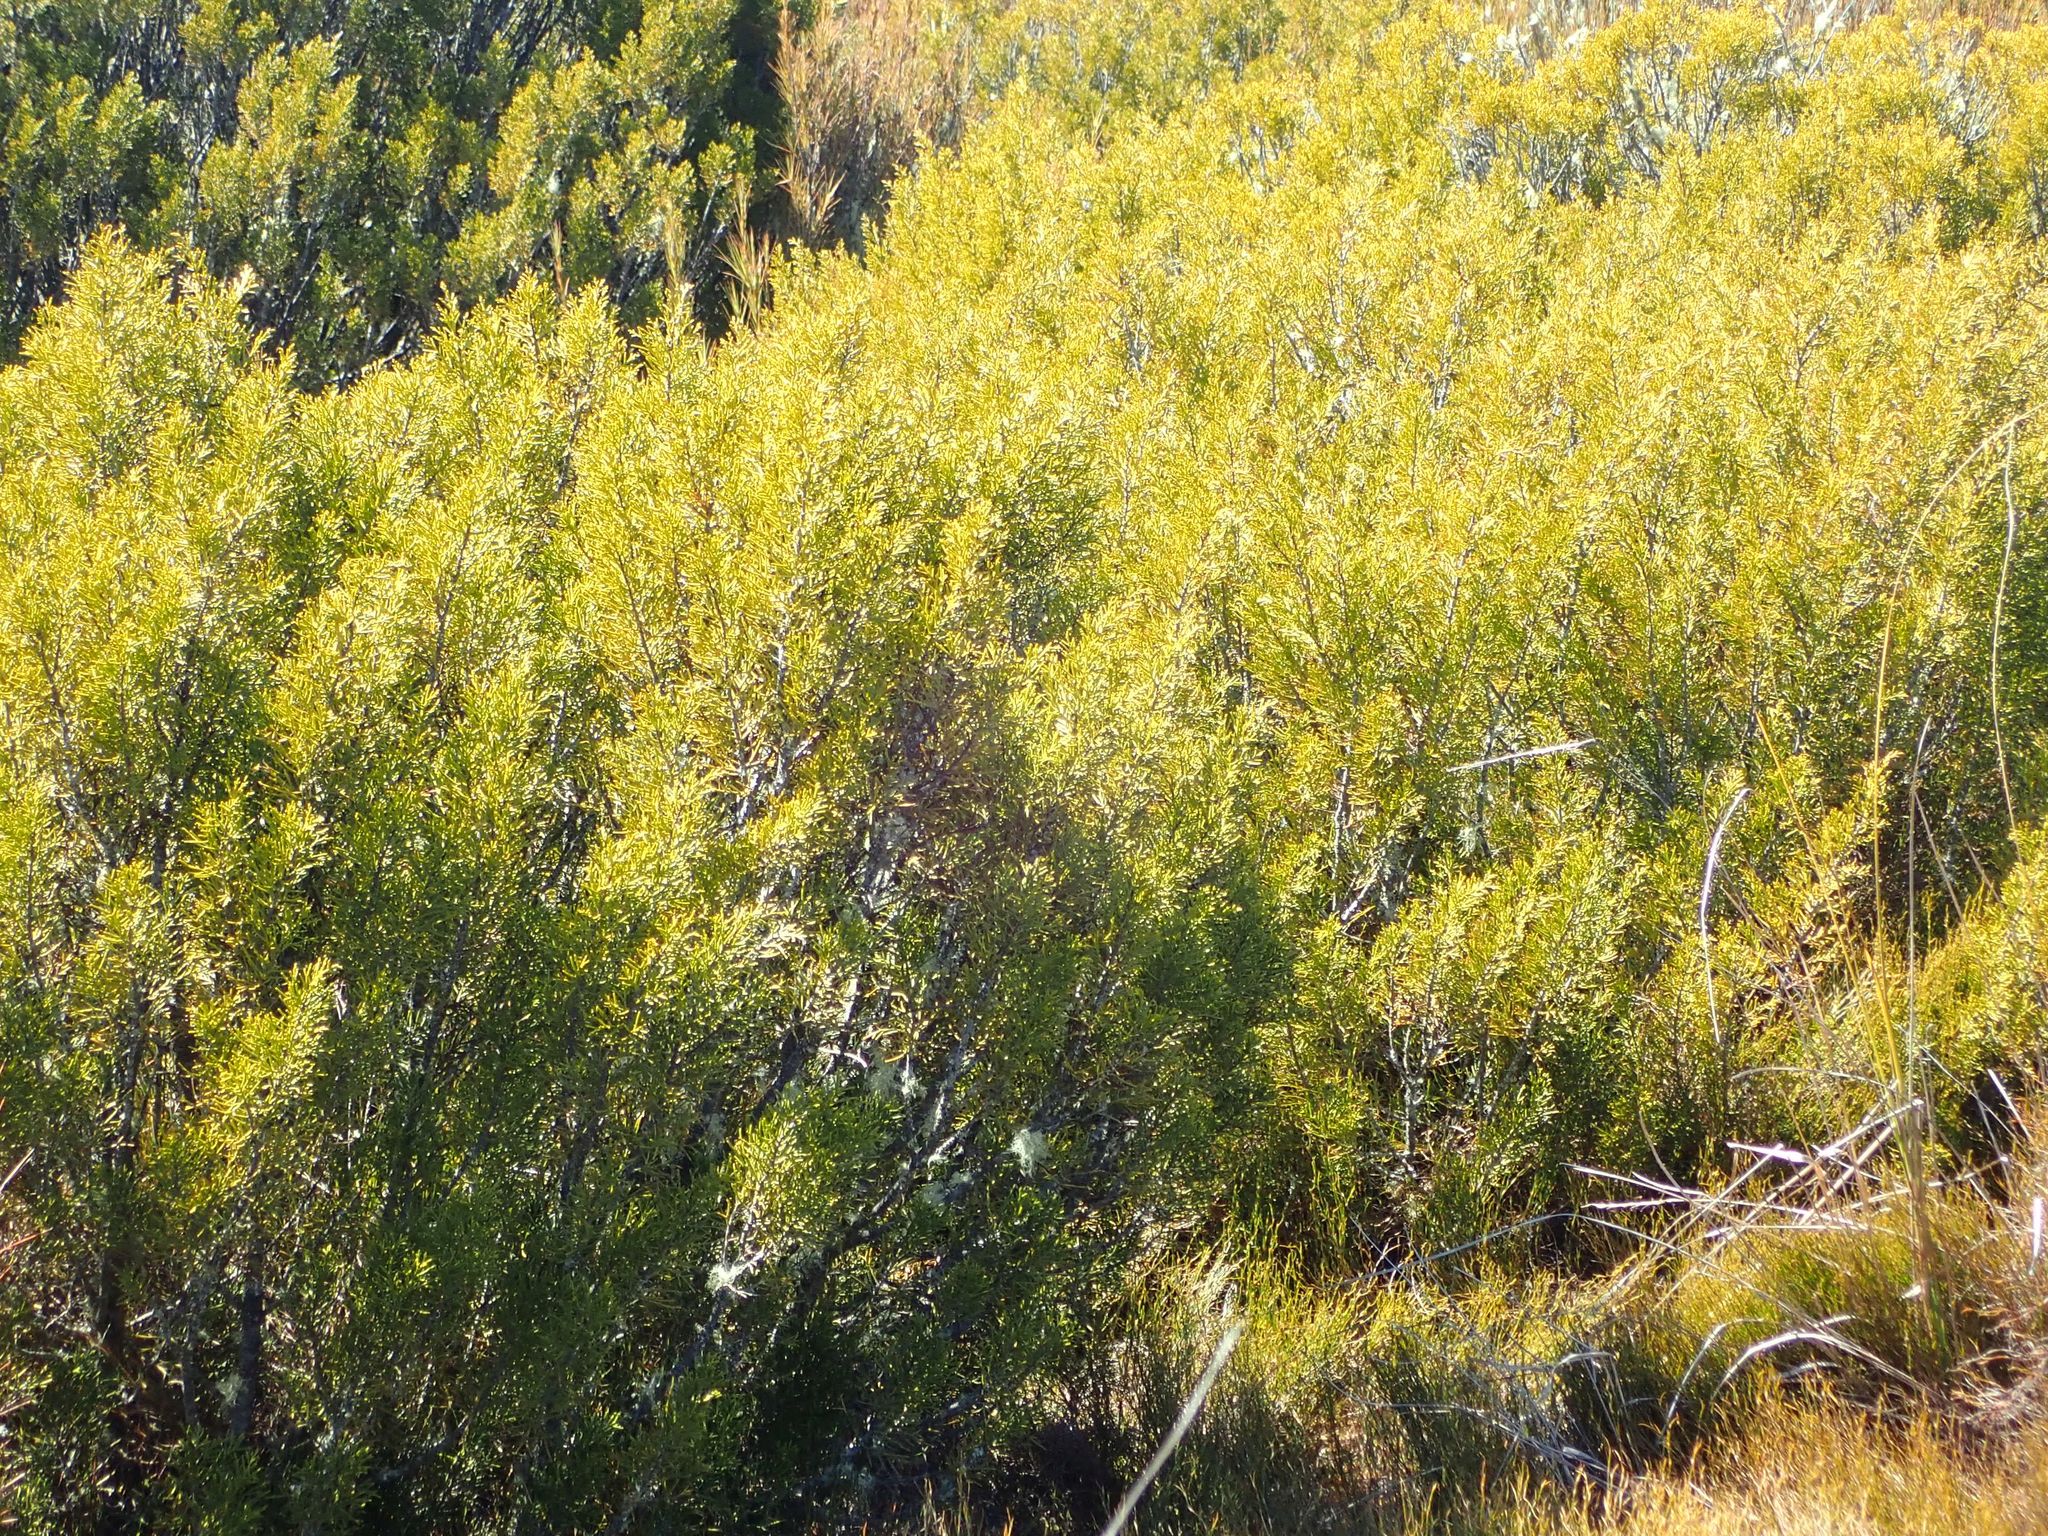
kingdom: Plantae
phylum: Tracheophyta
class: Pinopsida
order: Pinales
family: Podocarpaceae
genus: Halocarpus
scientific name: Halocarpus bidwillii
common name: Bog pine
